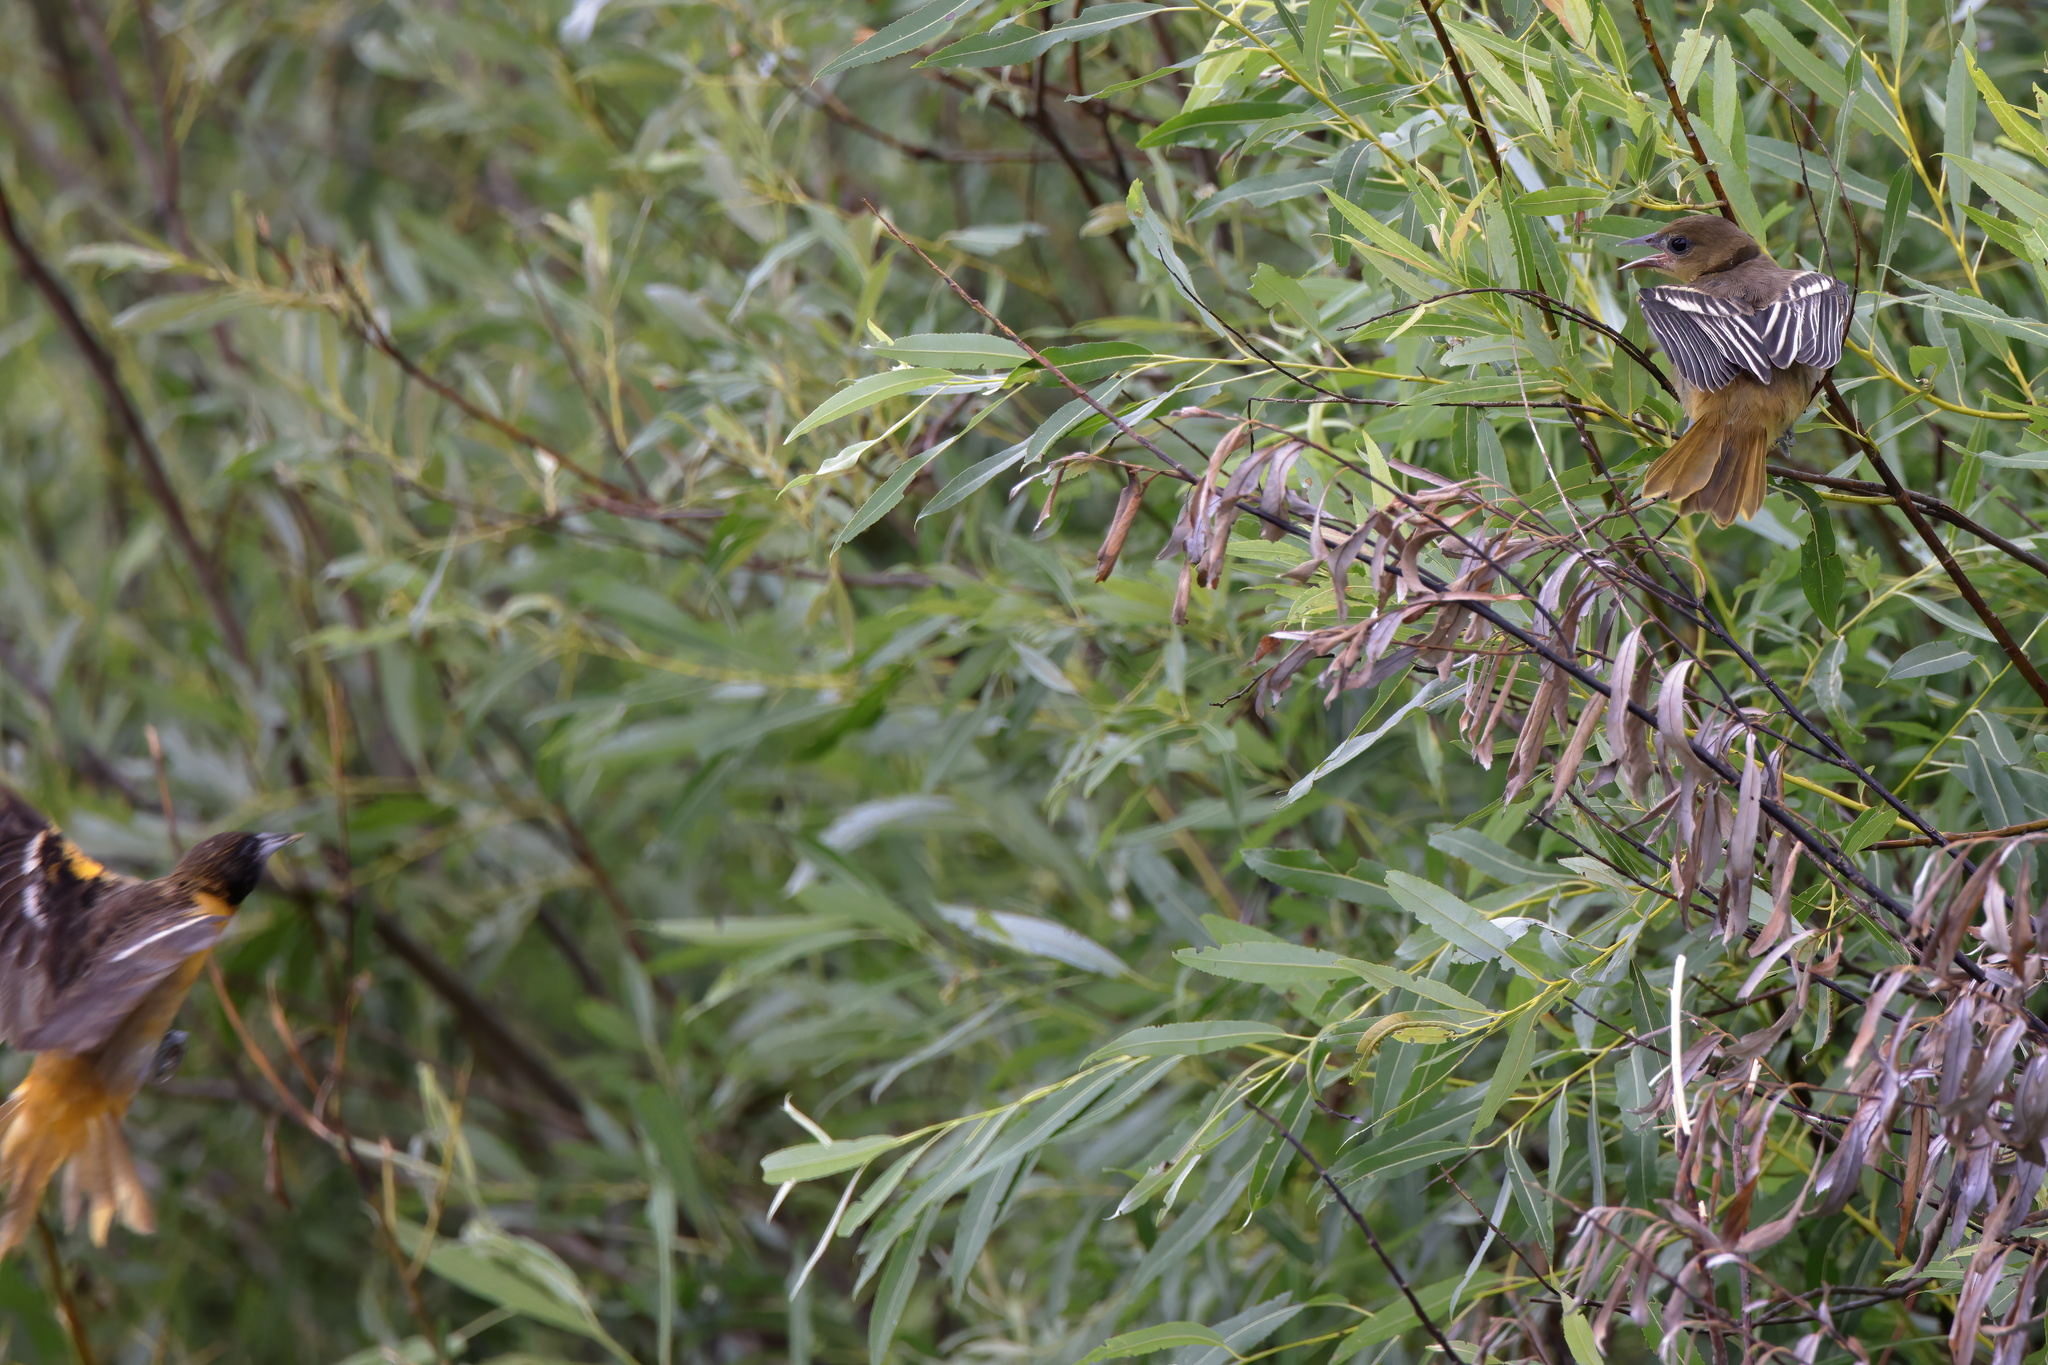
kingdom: Animalia
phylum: Chordata
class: Aves
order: Passeriformes
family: Icteridae
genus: Icterus
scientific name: Icterus galbula
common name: Baltimore oriole
